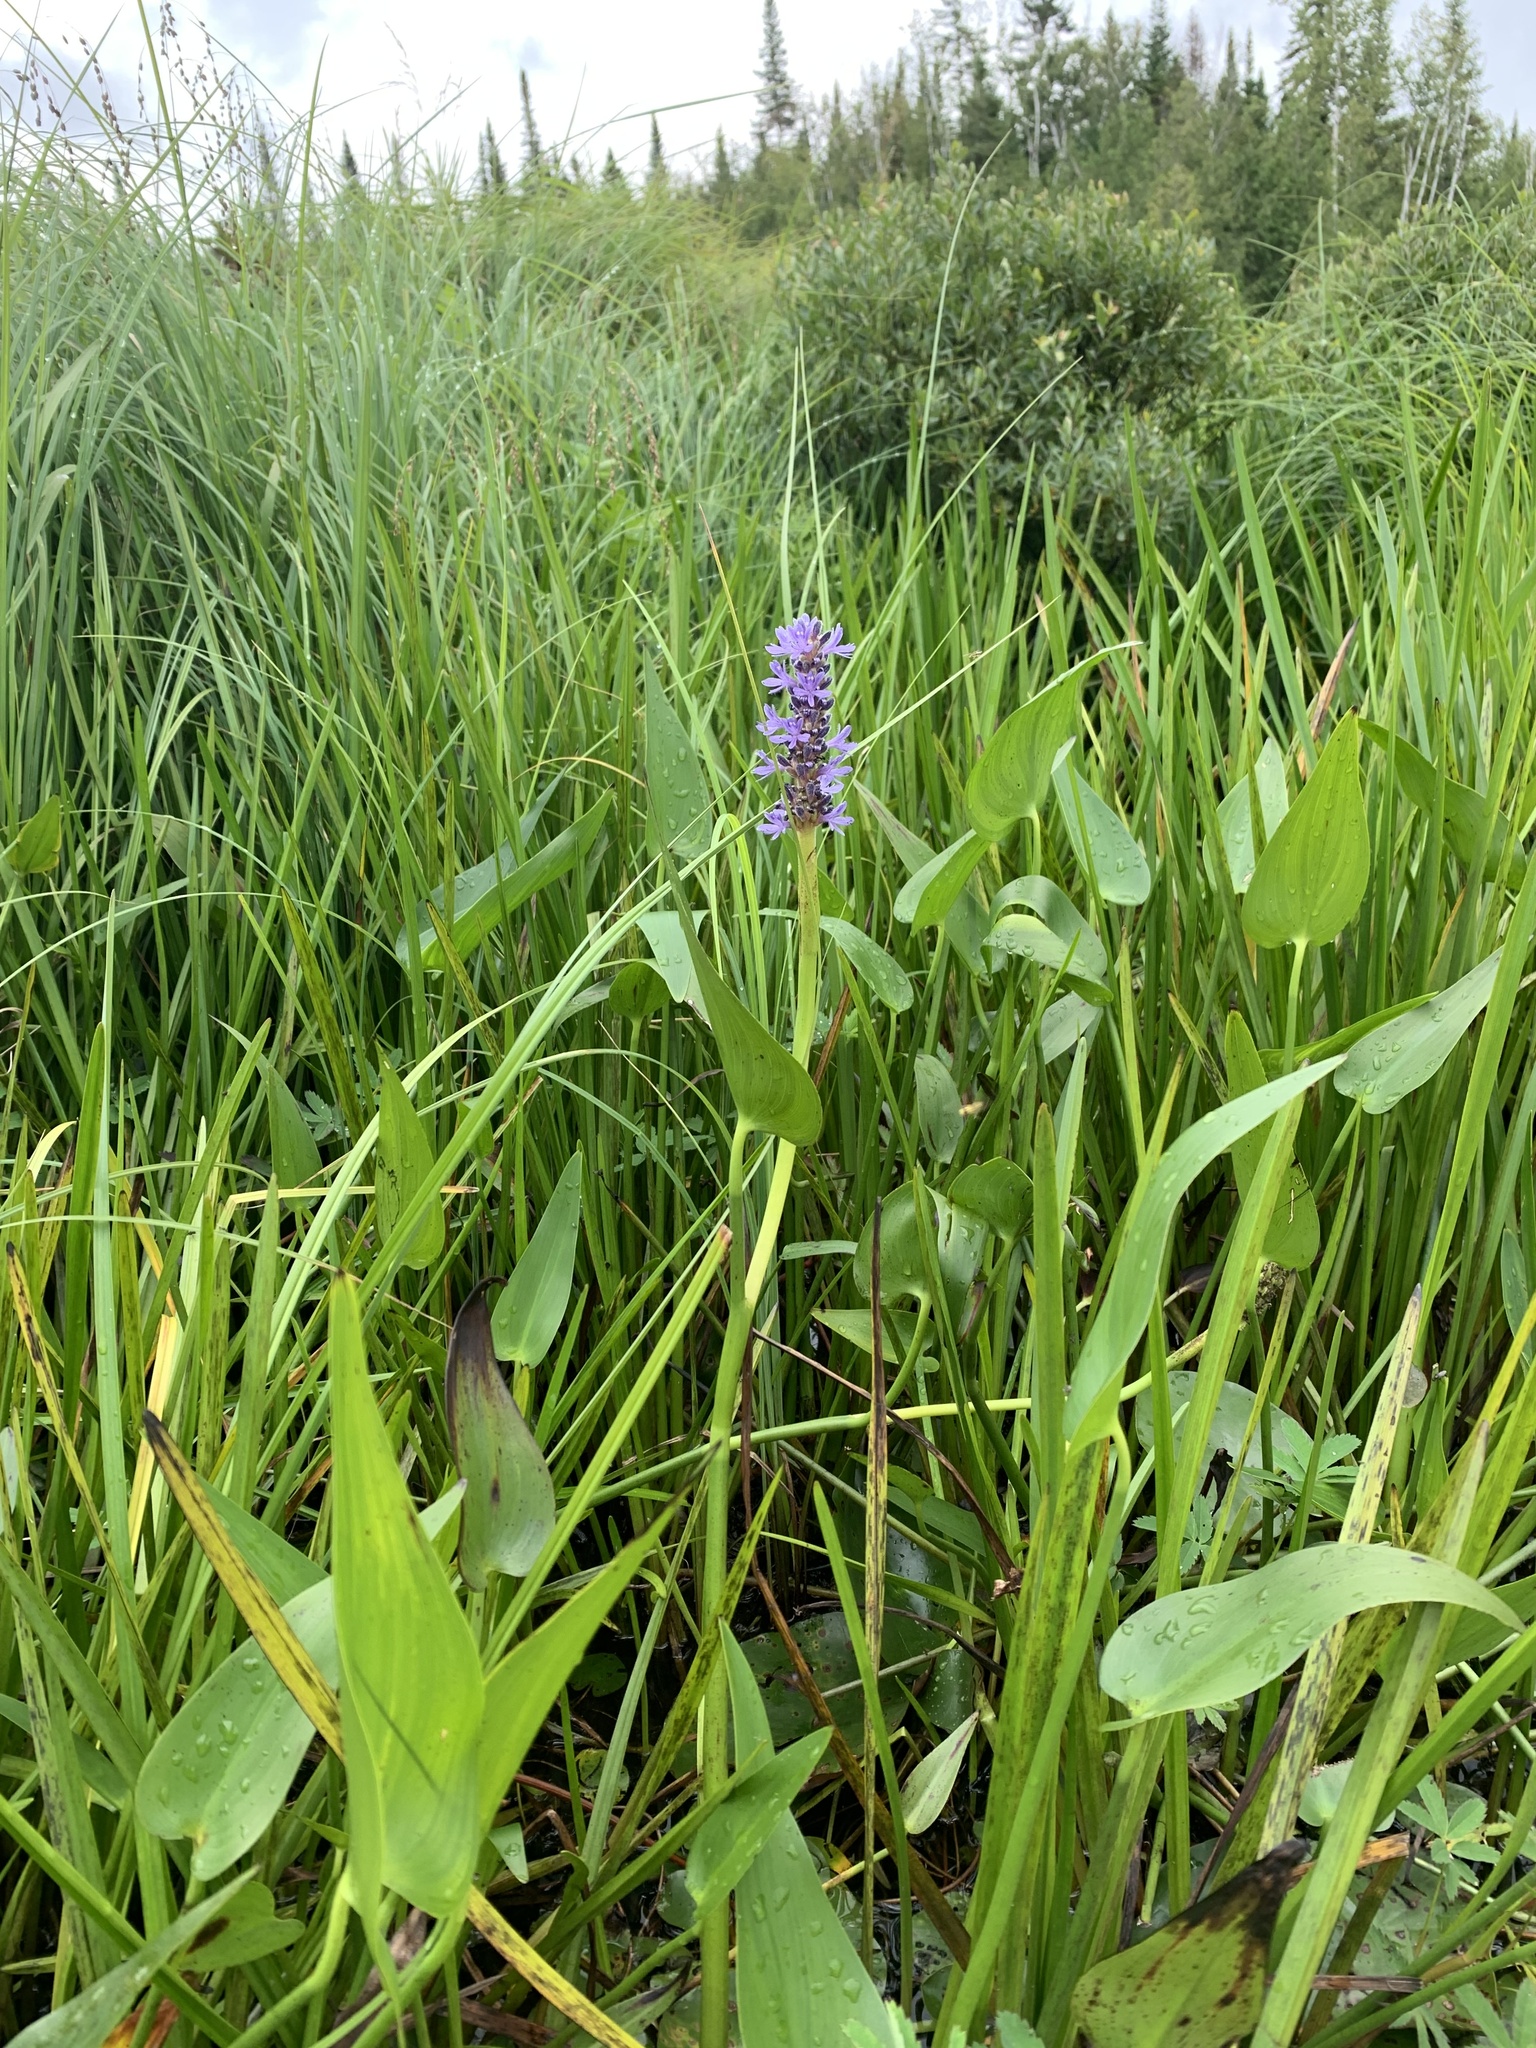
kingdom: Plantae
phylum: Tracheophyta
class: Liliopsida
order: Commelinales
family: Pontederiaceae
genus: Pontederia
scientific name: Pontederia cordata
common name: Pickerelweed
